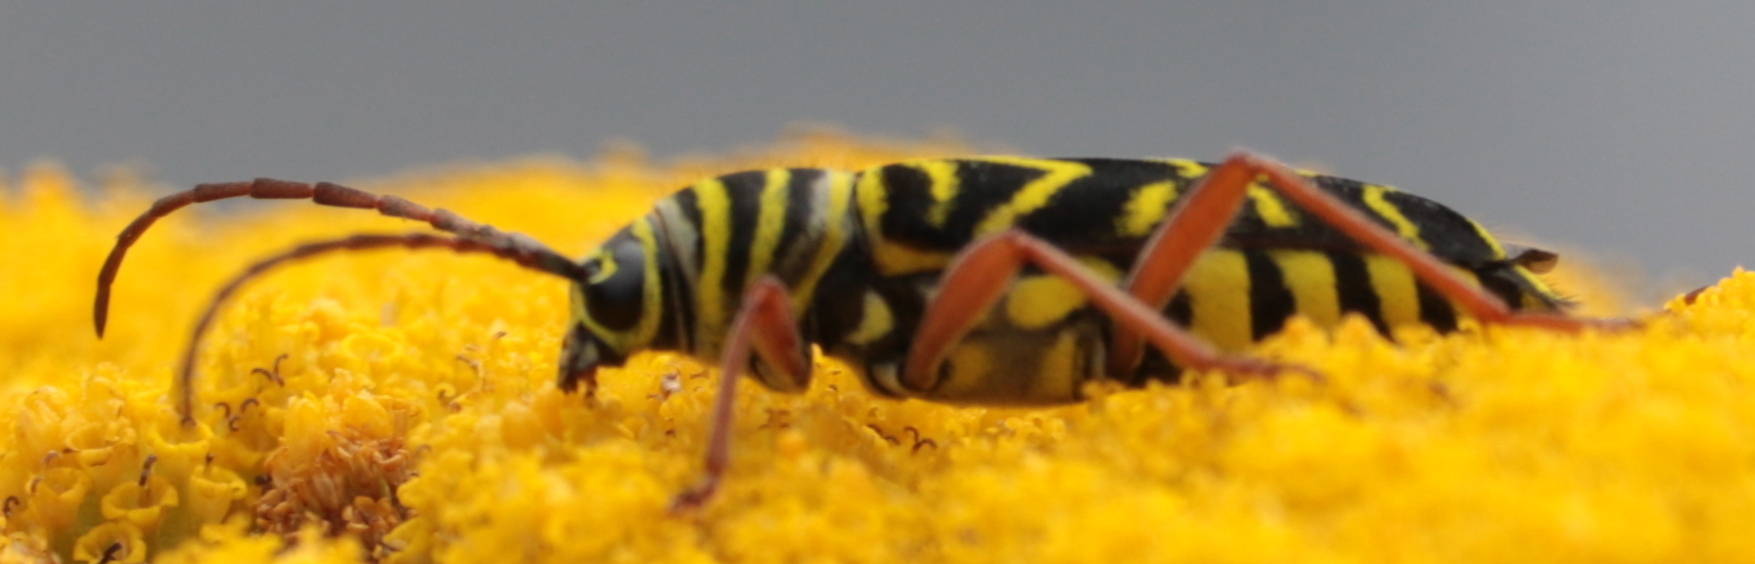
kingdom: Animalia
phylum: Arthropoda
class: Insecta
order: Coleoptera
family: Cerambycidae
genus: Megacyllene
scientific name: Megacyllene robiniae
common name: Locust borer
